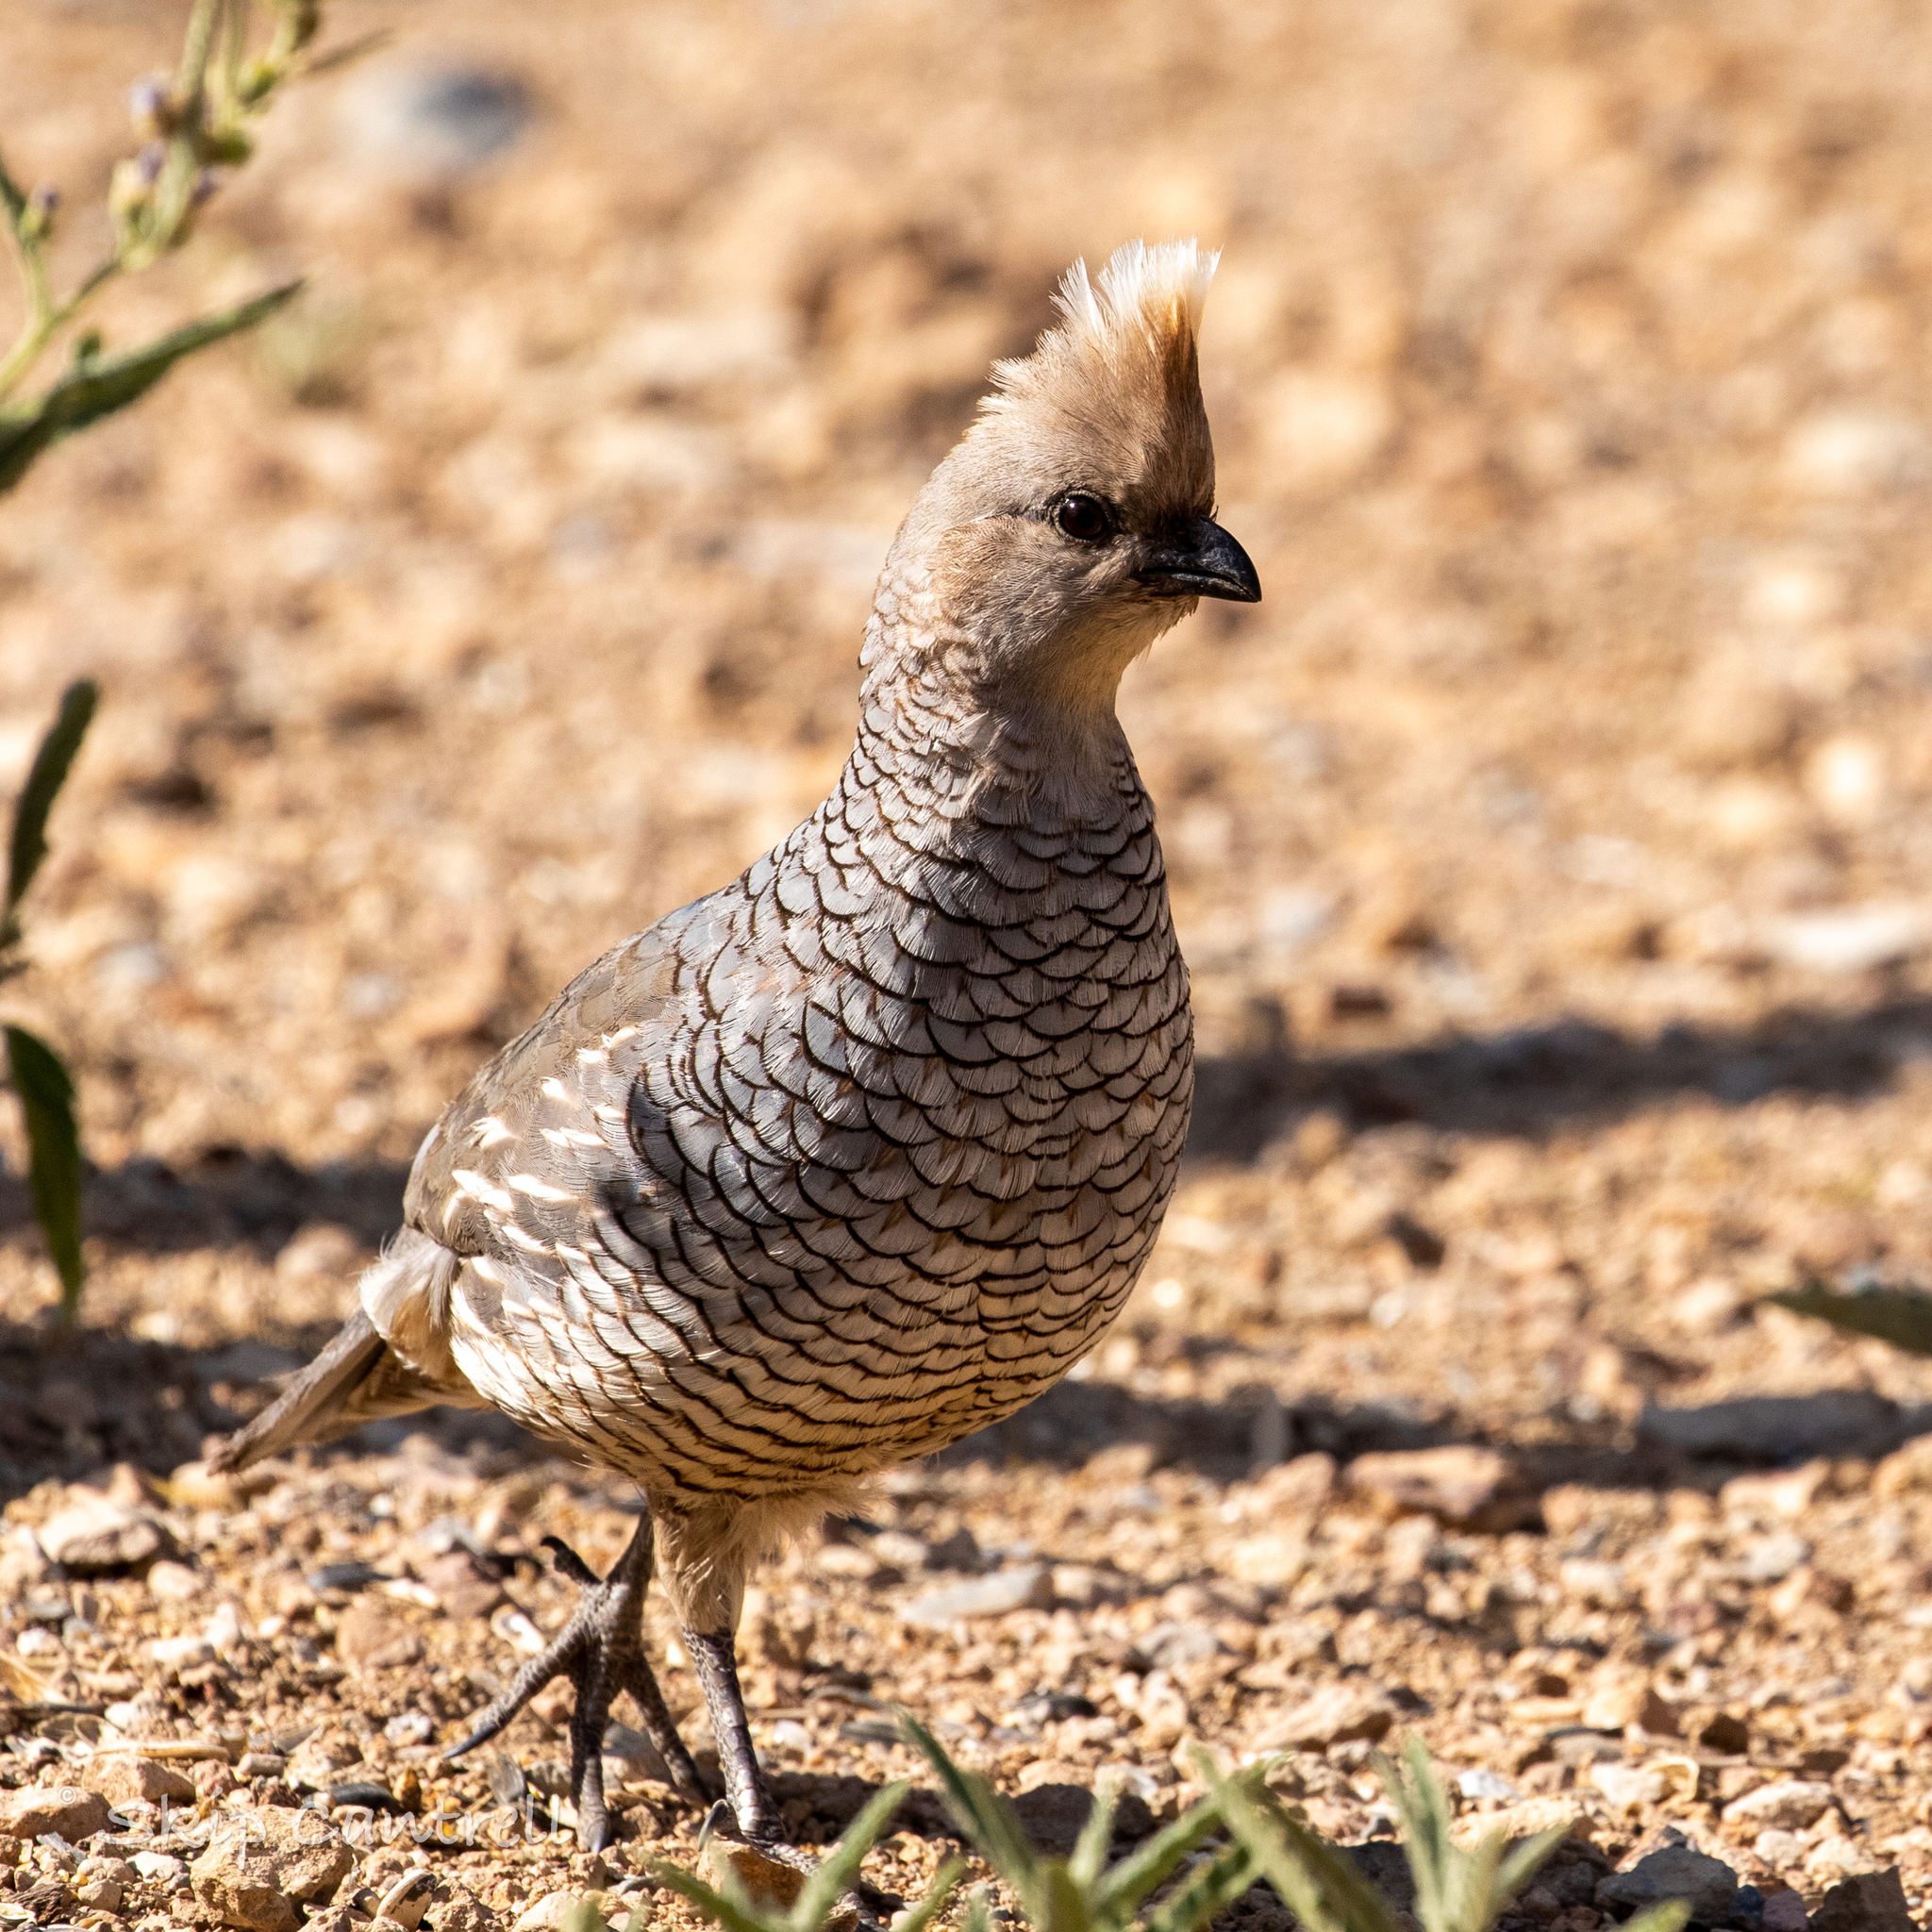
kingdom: Animalia
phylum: Chordata
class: Aves
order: Galliformes
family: Odontophoridae
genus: Callipepla
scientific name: Callipepla squamata
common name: Scaled quail
